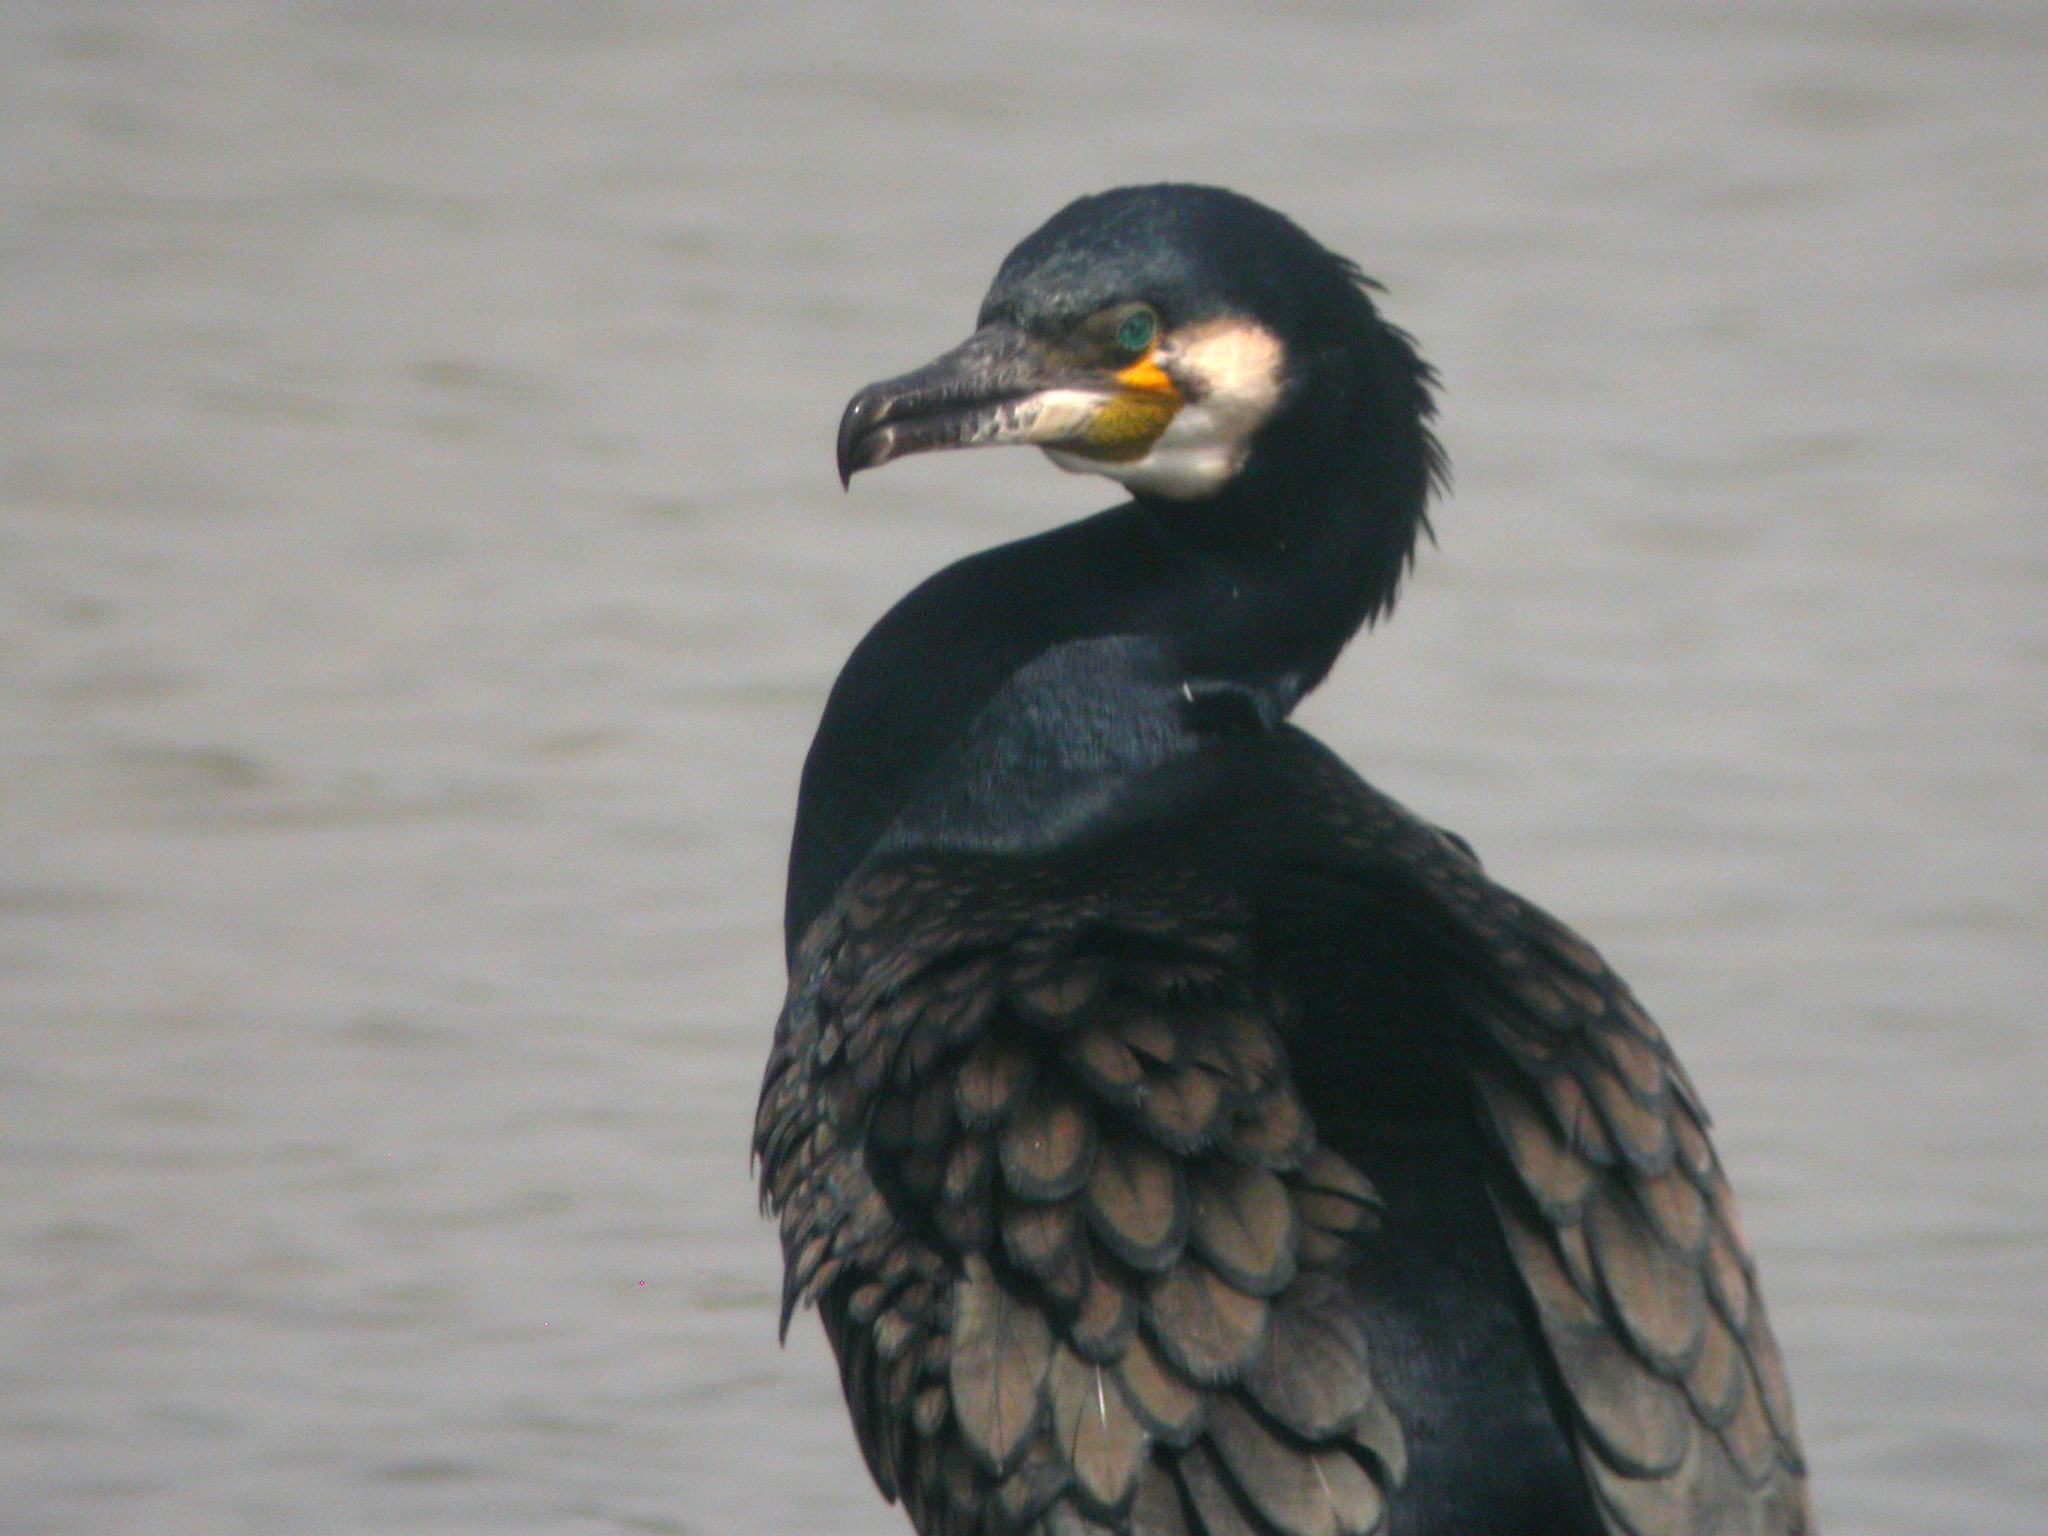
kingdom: Animalia
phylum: Chordata
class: Aves
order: Suliformes
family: Phalacrocoracidae
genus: Phalacrocorax
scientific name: Phalacrocorax carbo
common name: Great cormorant
